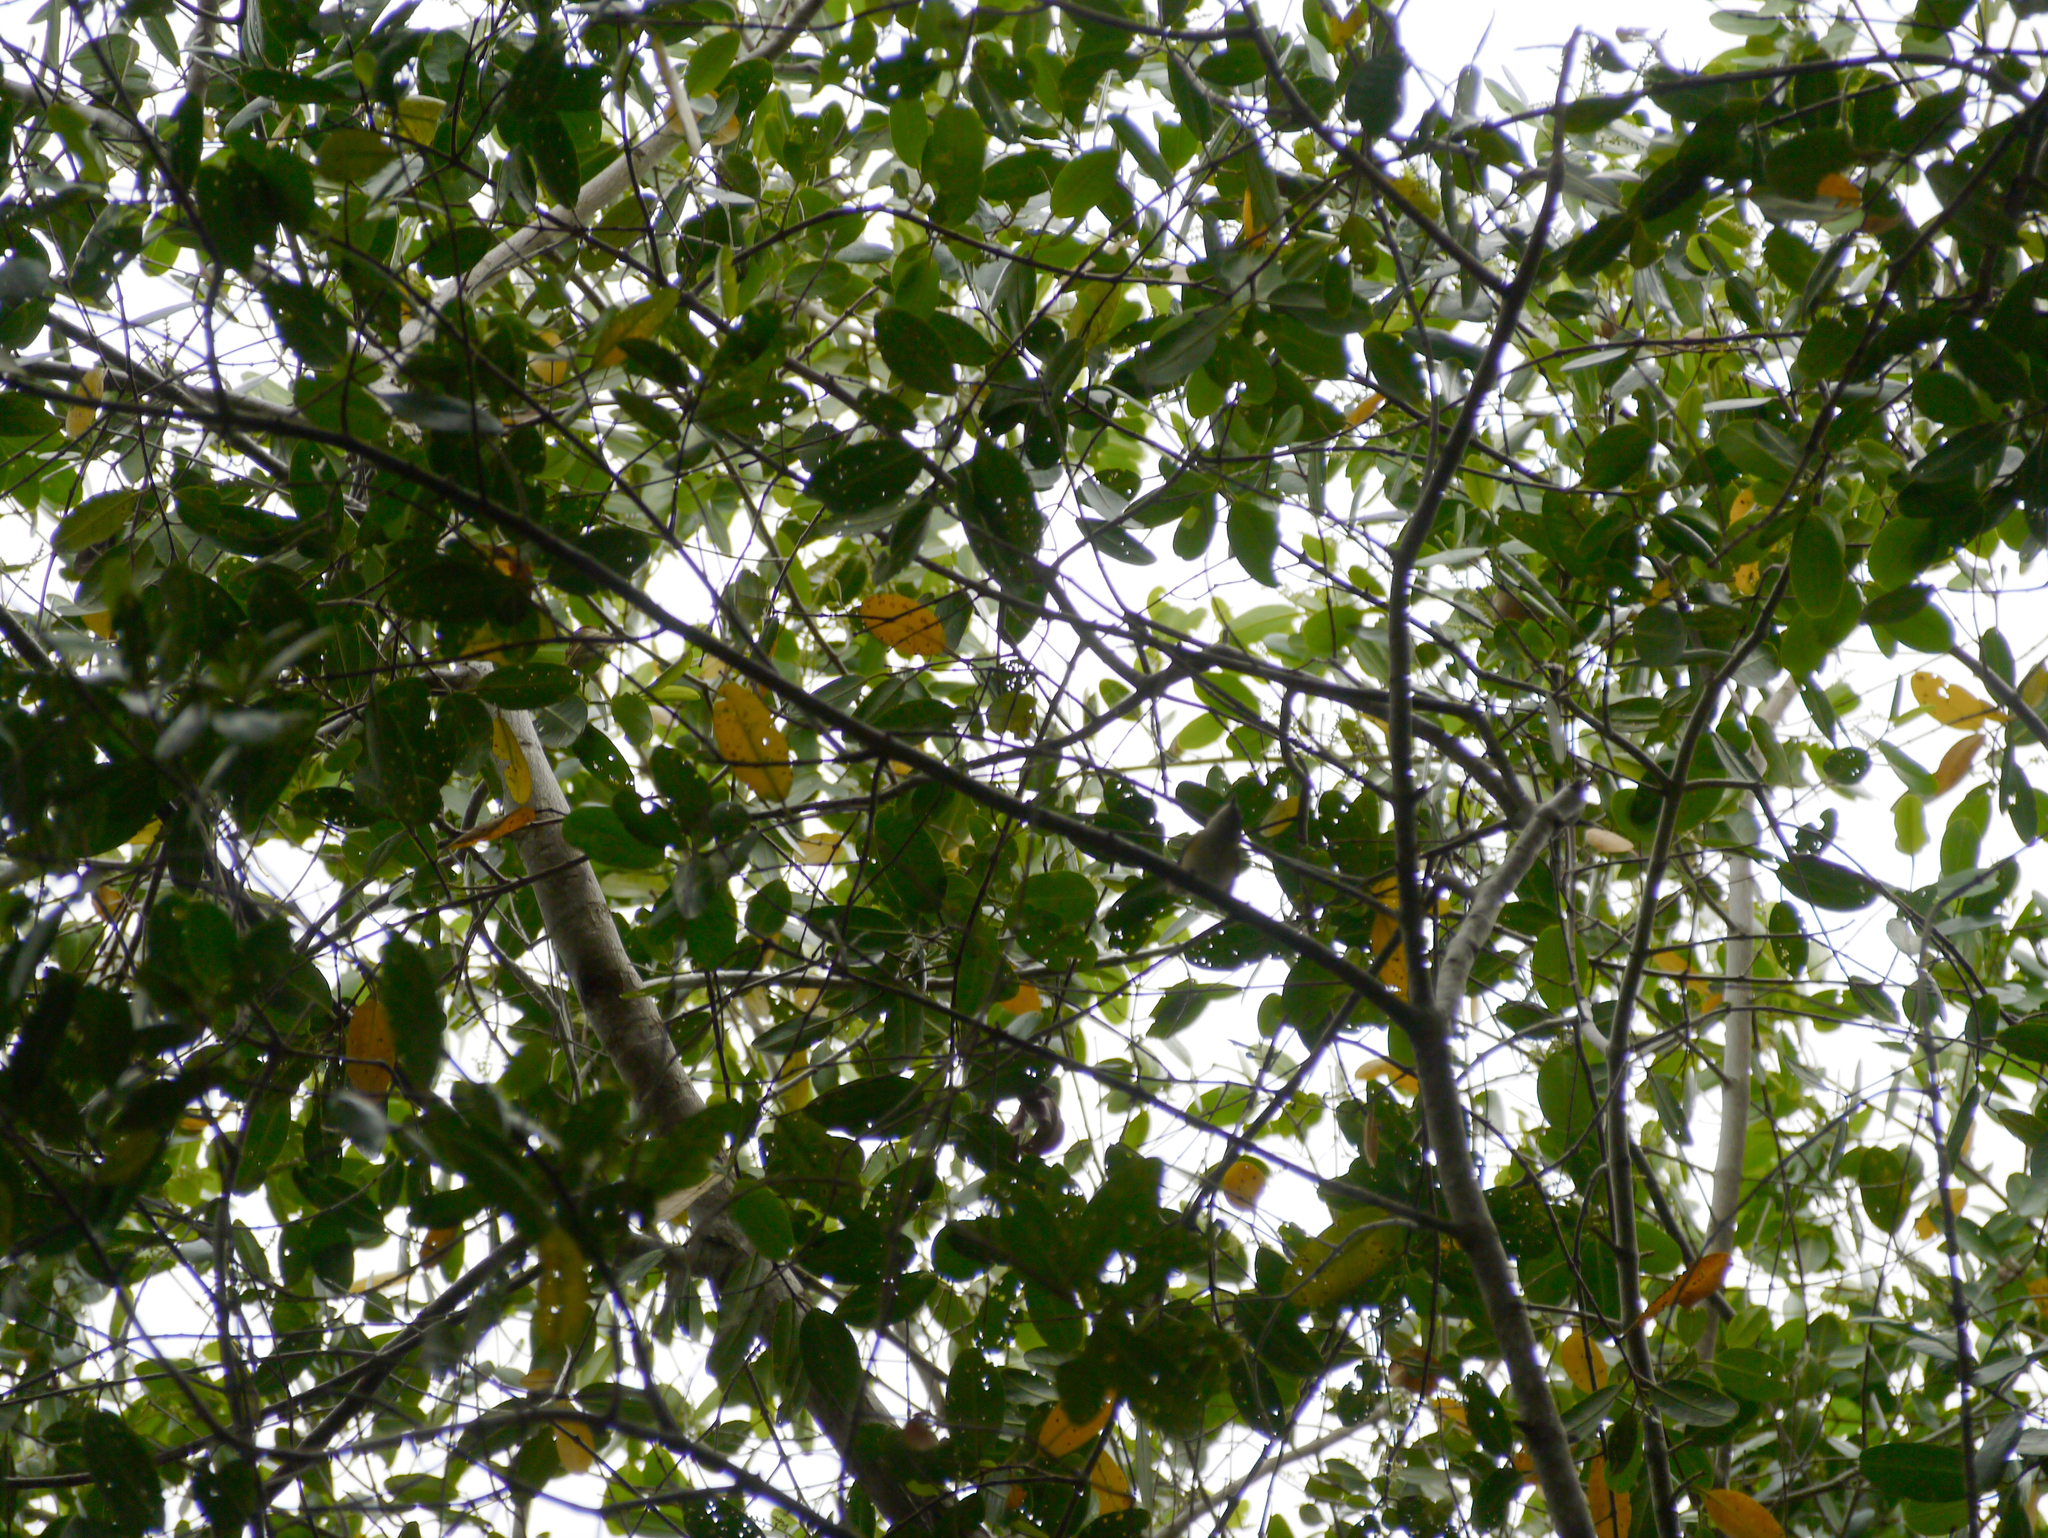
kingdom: Animalia
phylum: Chordata
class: Aves
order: Passeriformes
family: Parulidae
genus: Setophaga
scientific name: Setophaga ruticilla
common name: American redstart
